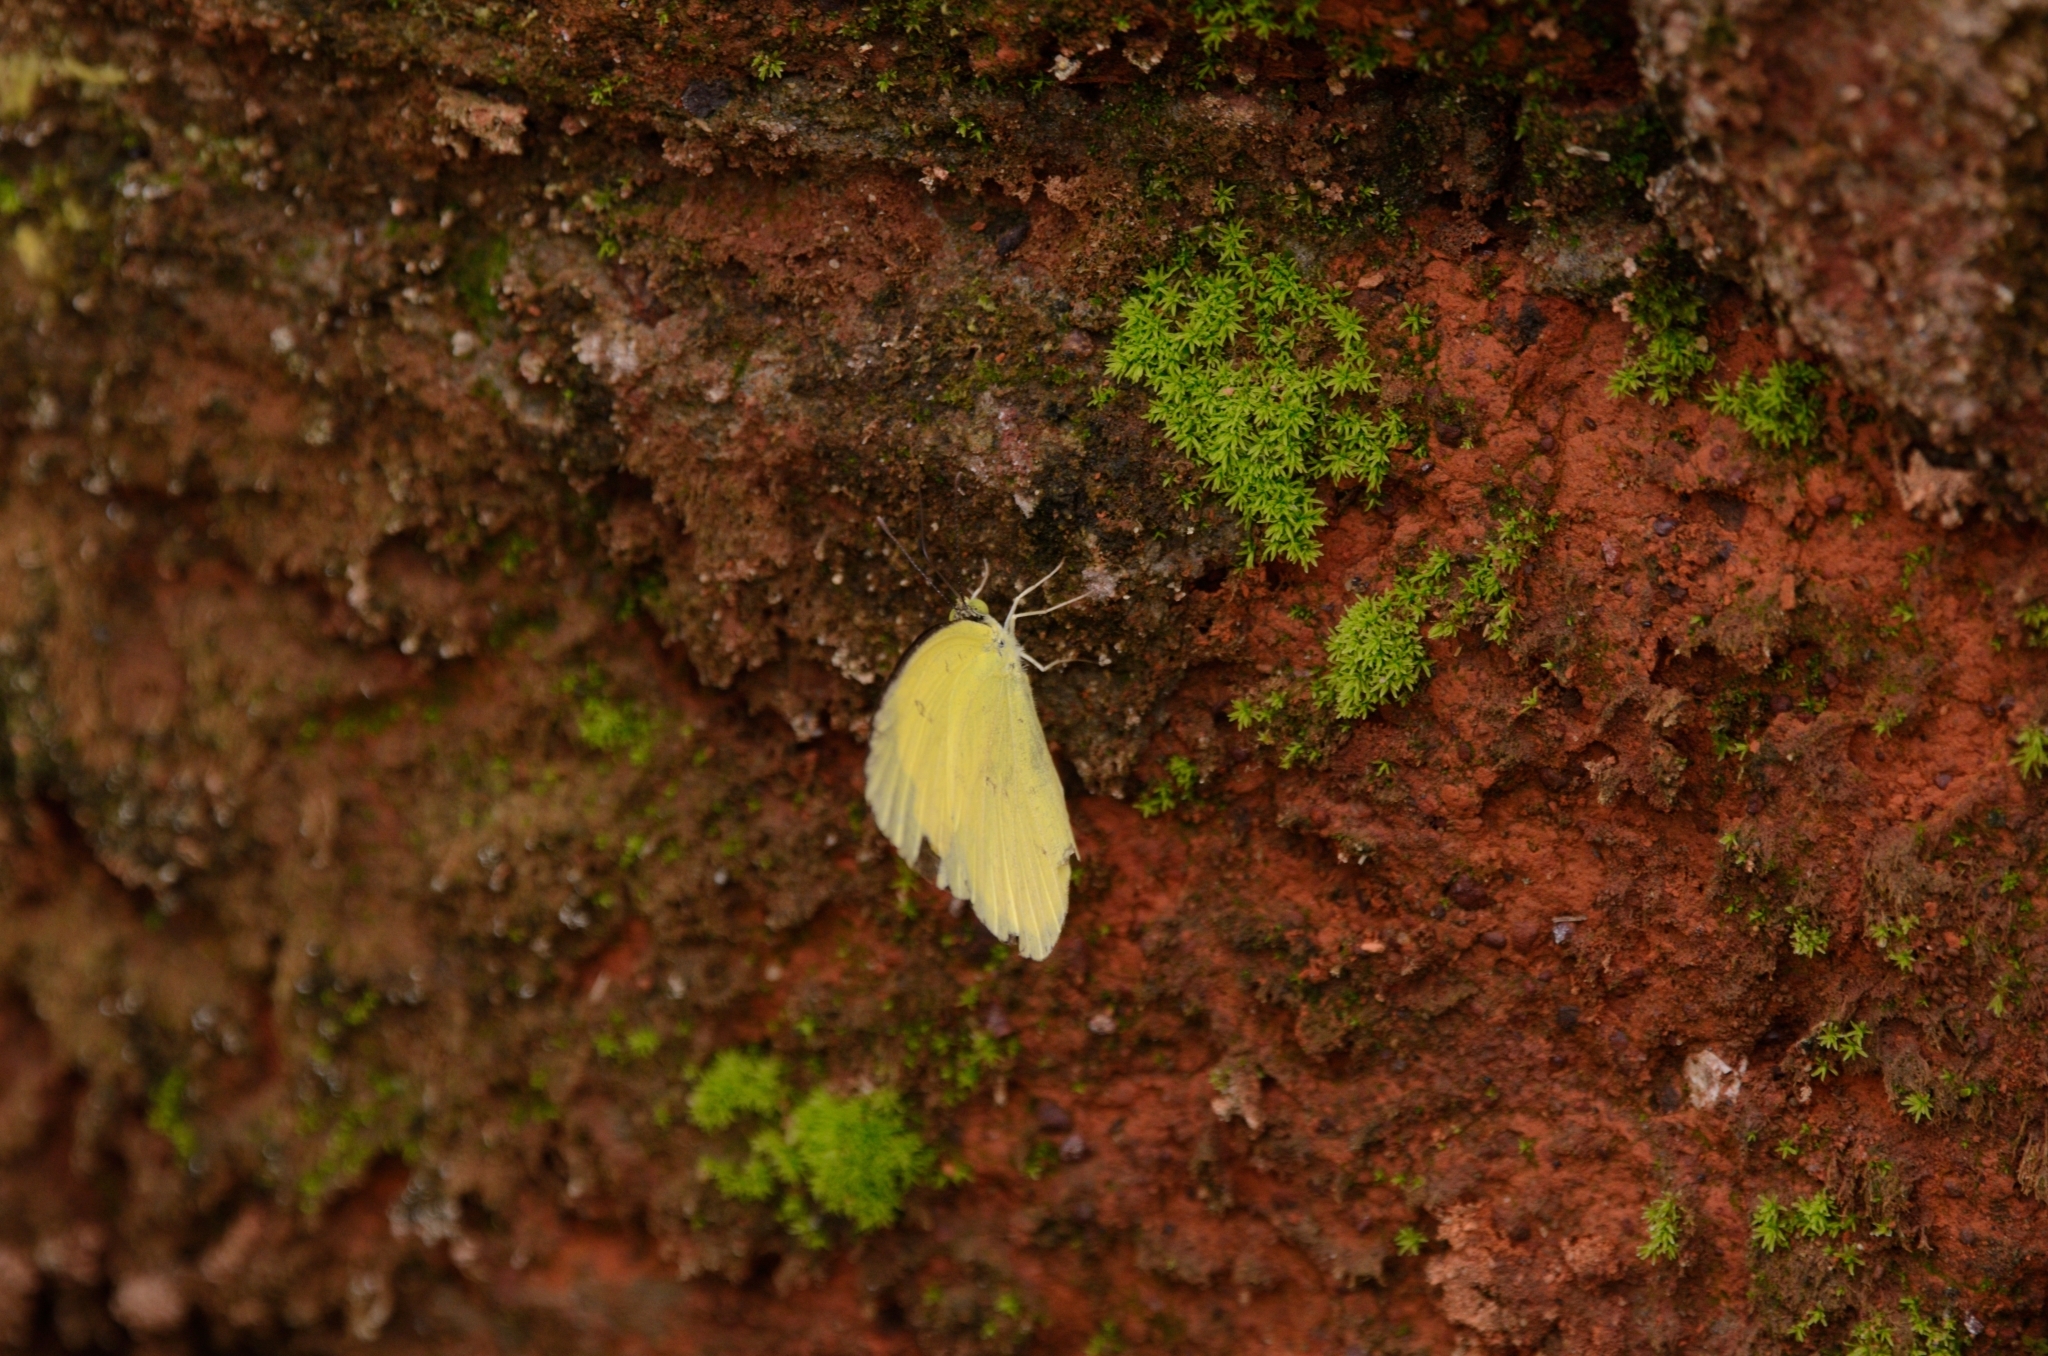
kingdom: Animalia
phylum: Arthropoda
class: Insecta
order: Lepidoptera
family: Pieridae
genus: Eurema
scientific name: Eurema hecabe
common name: Pale grass yellow
